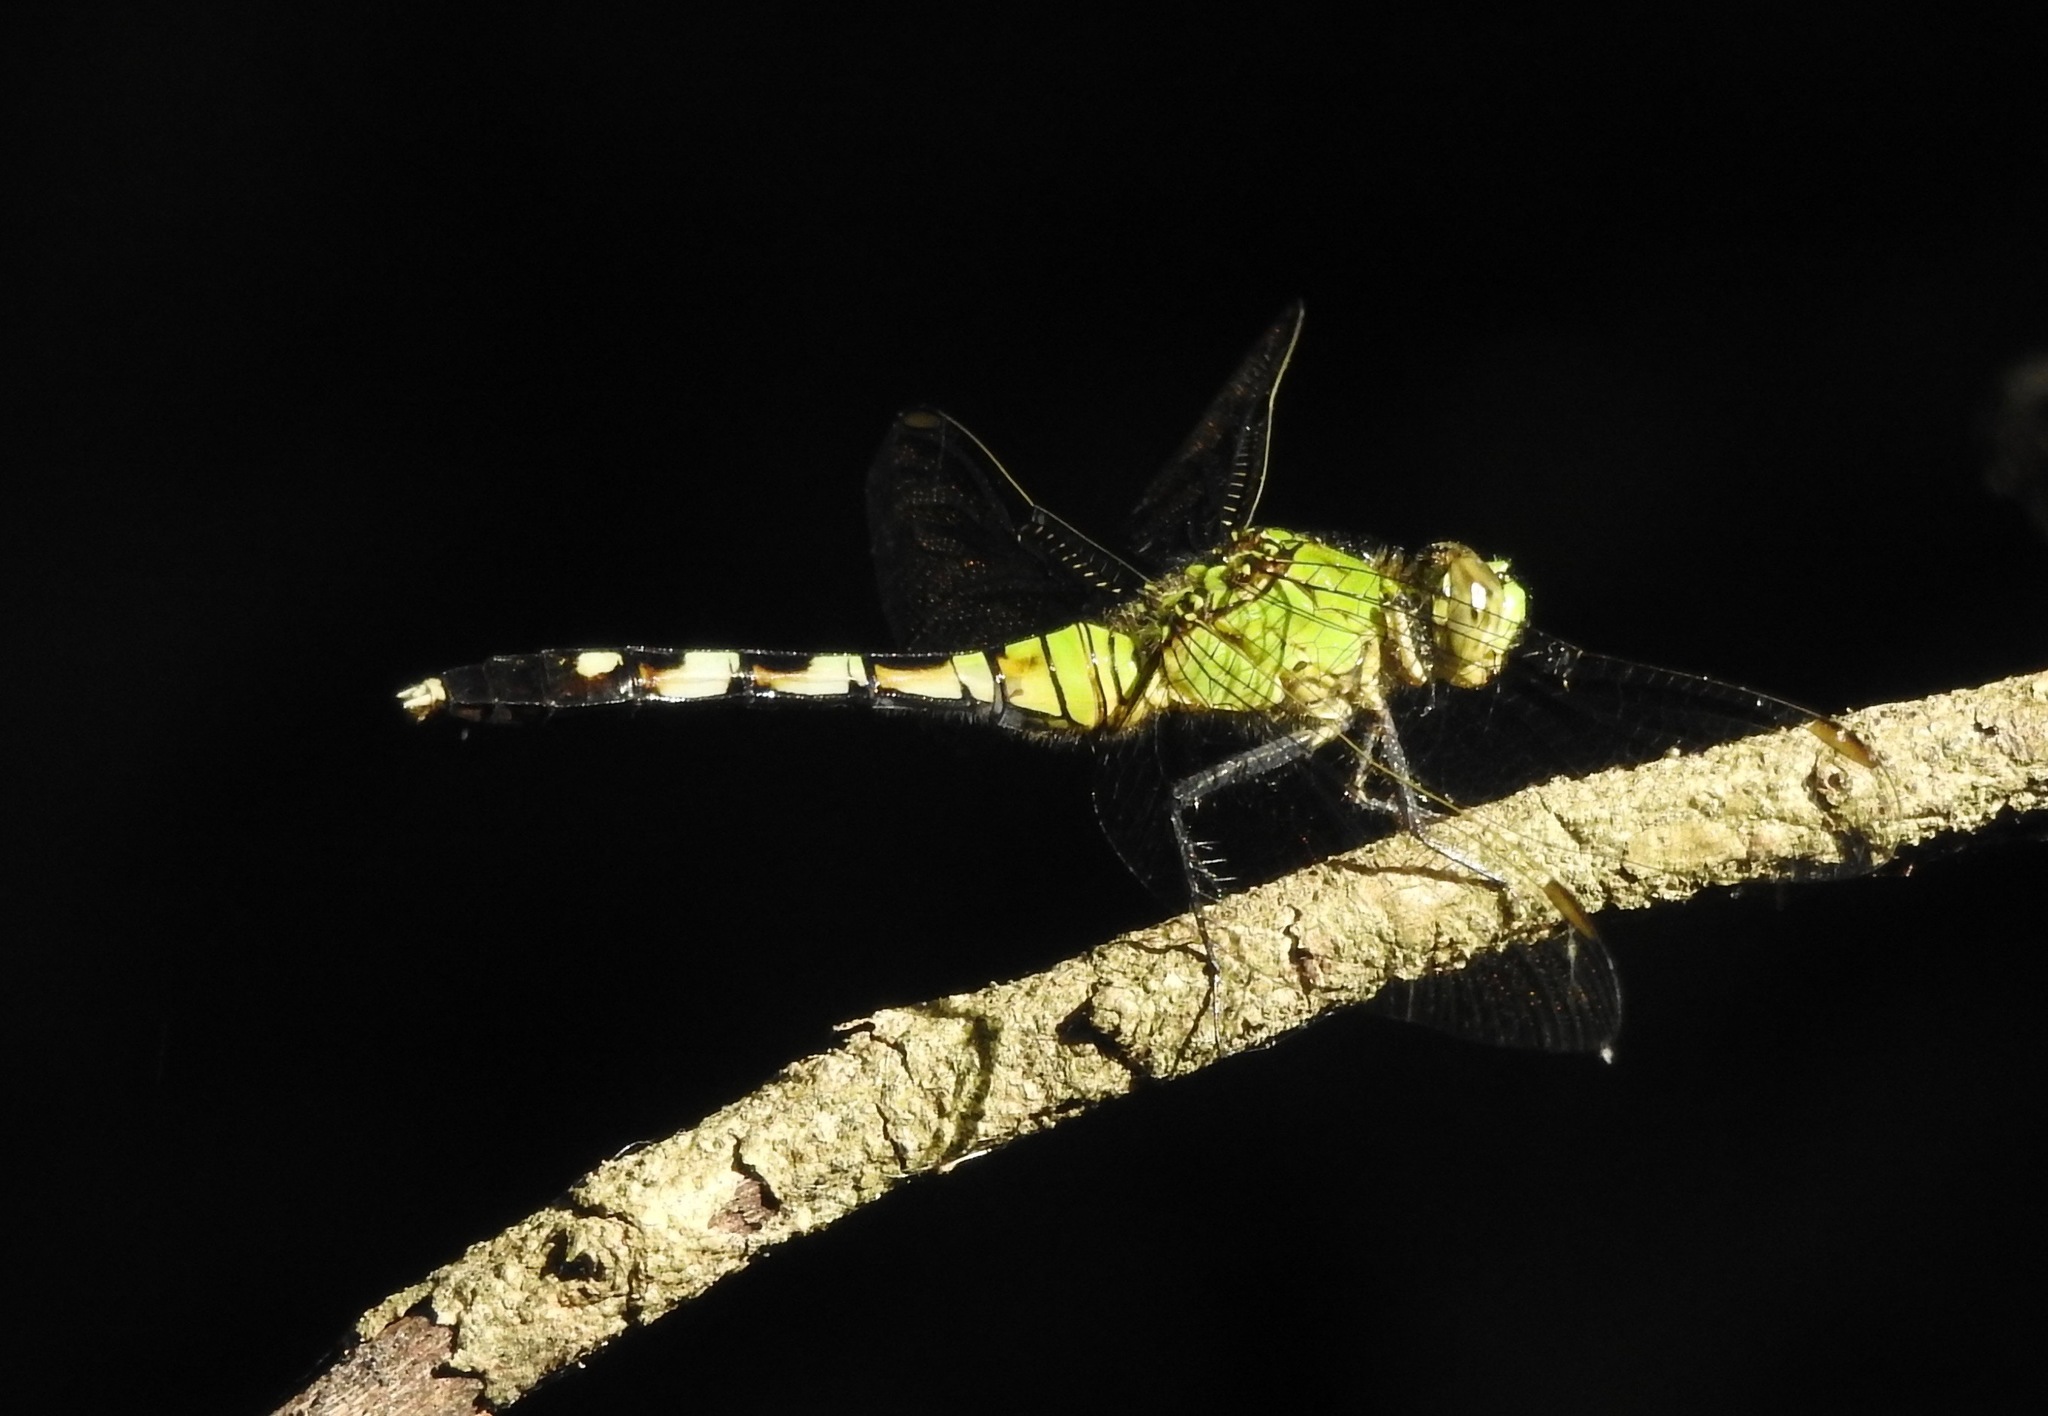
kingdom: Animalia
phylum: Arthropoda
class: Insecta
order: Odonata
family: Libellulidae
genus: Erythemis
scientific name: Erythemis simplicicollis
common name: Eastern pondhawk
